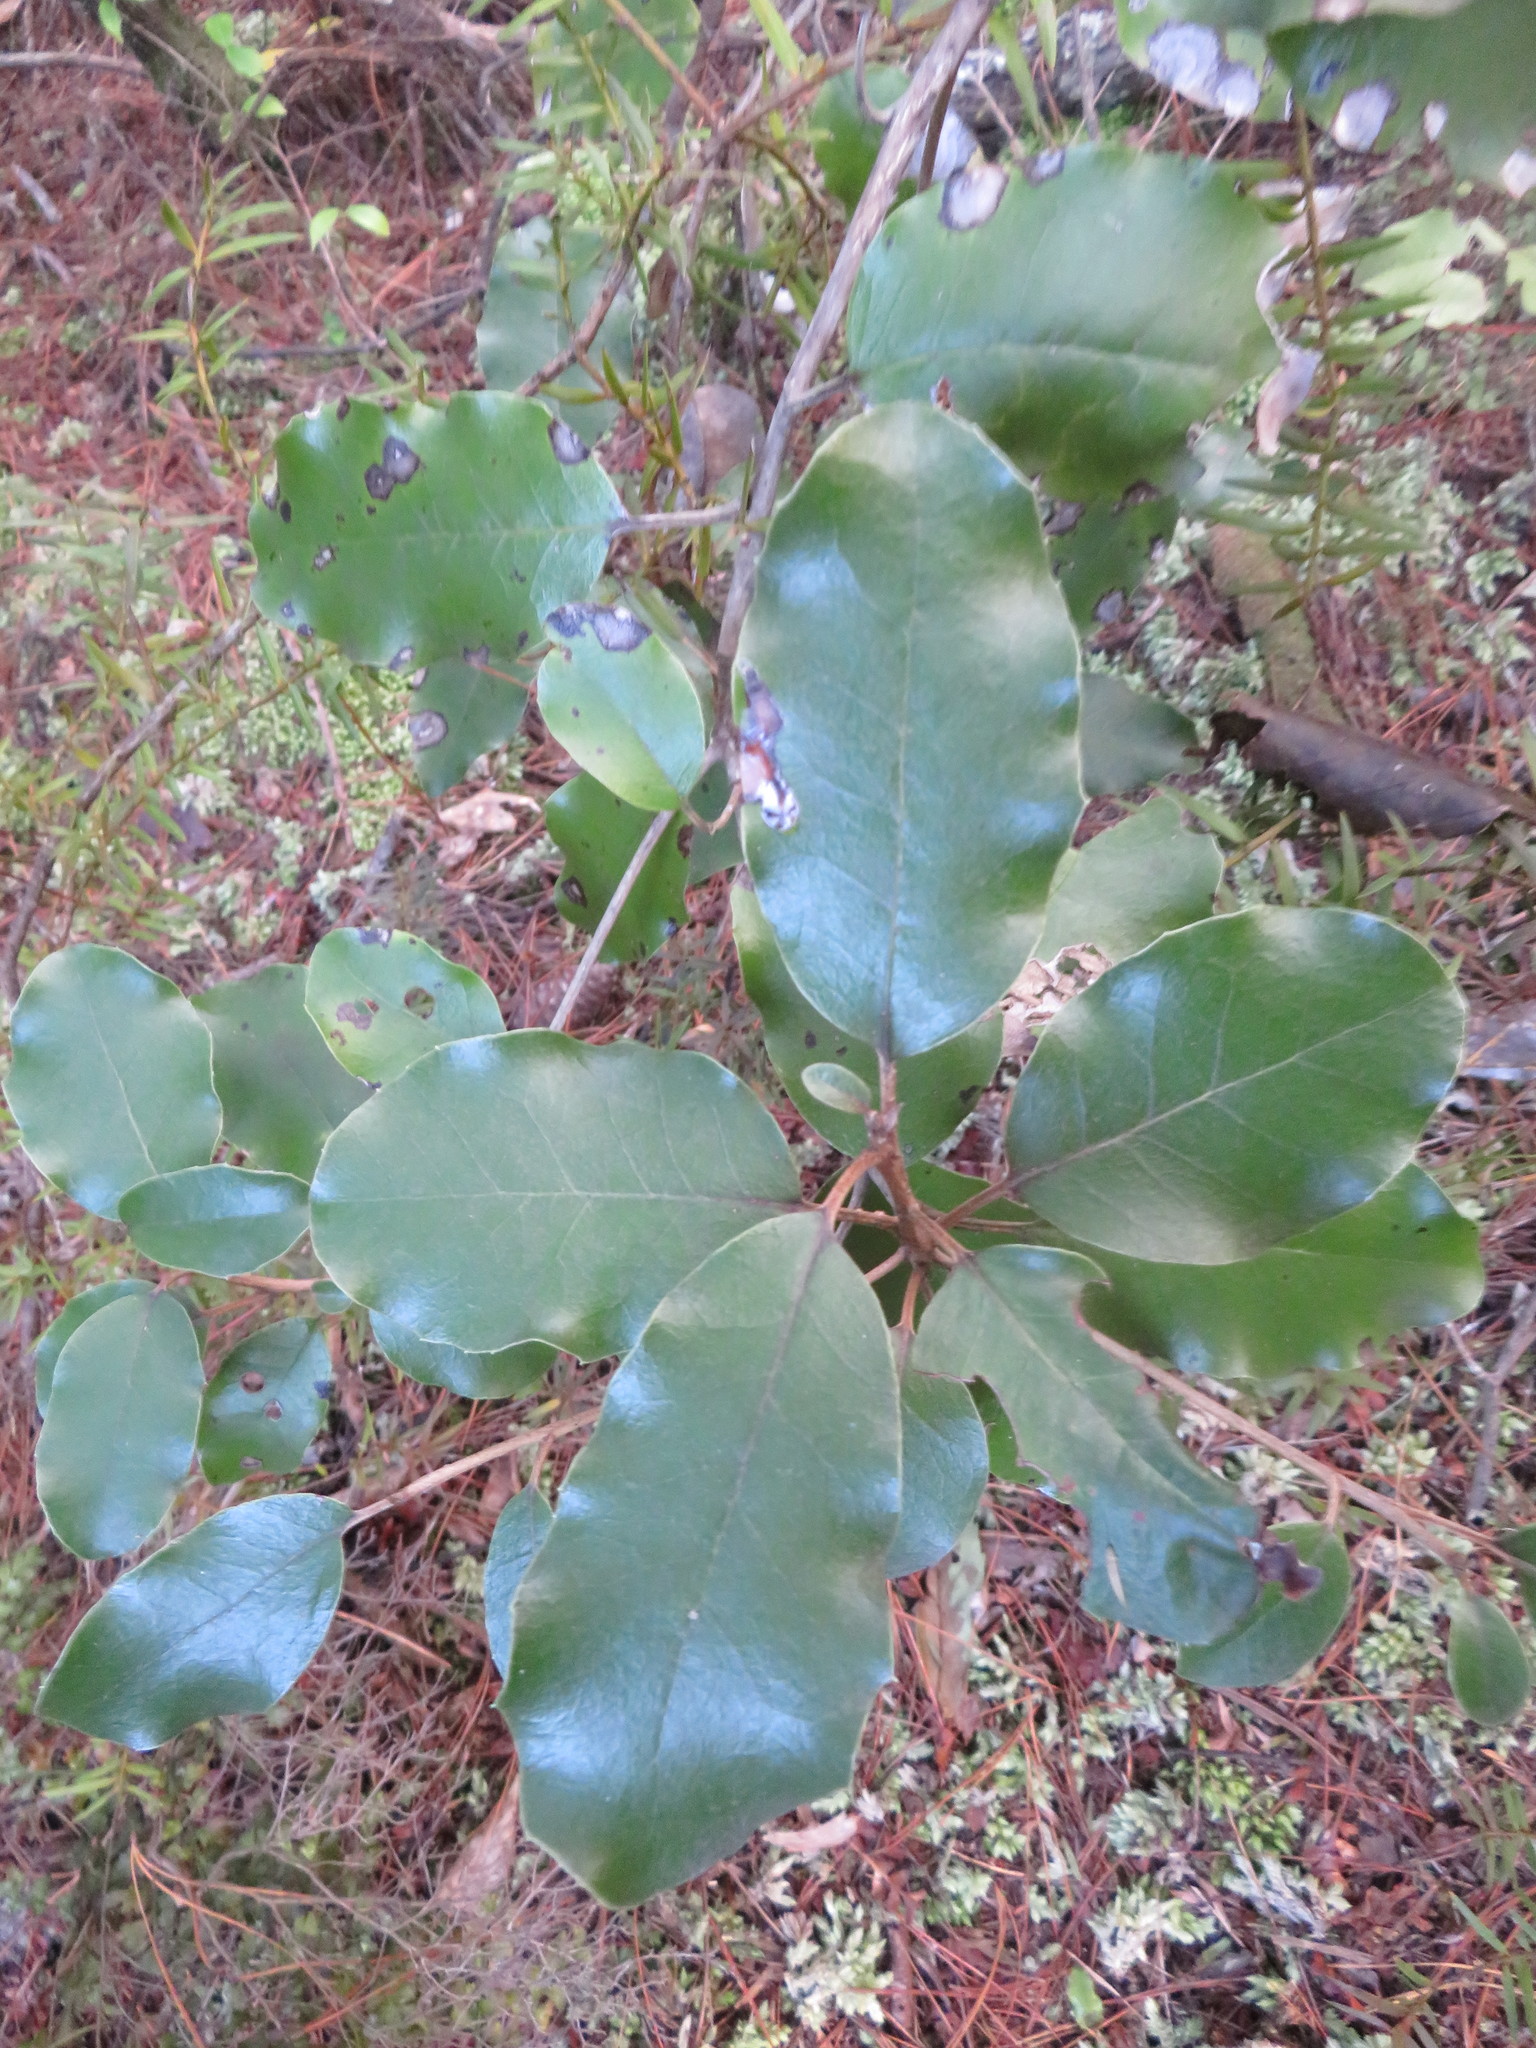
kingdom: Plantae
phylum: Tracheophyta
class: Magnoliopsida
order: Asterales
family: Asteraceae
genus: Olearia
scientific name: Olearia furfuracea
